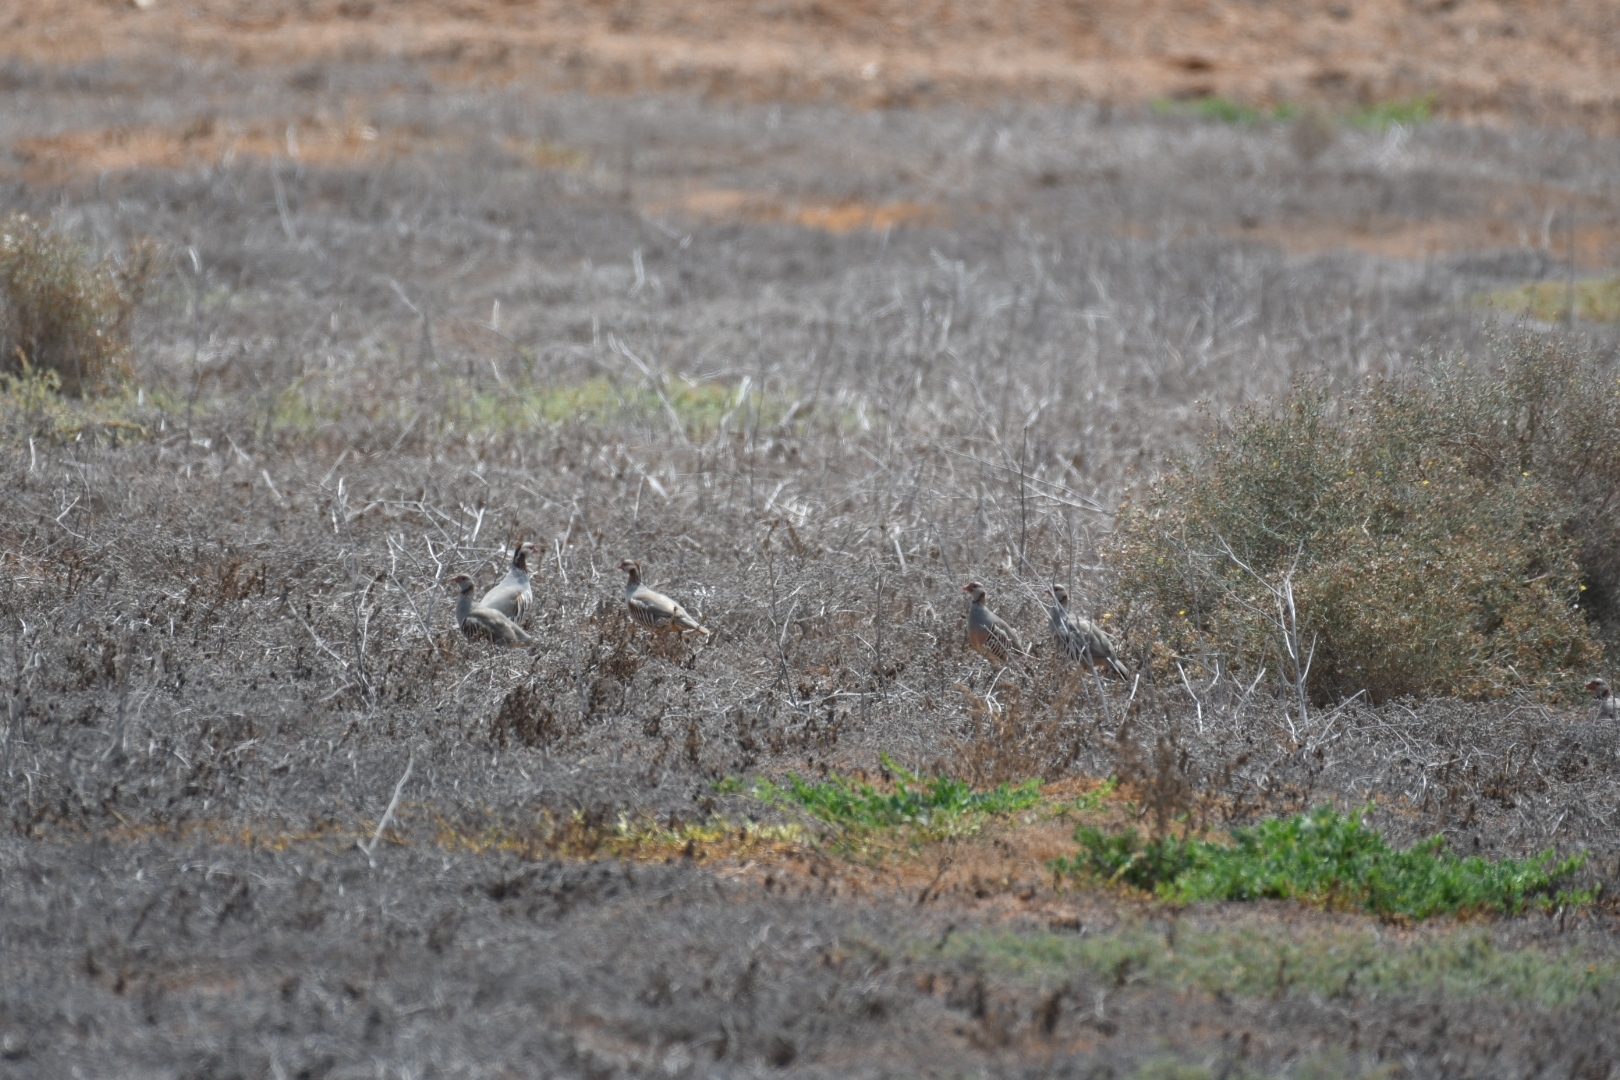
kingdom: Animalia
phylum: Chordata
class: Aves
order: Galliformes
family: Phasianidae
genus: Alectoris
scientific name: Alectoris barbara
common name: Barbary partridge
